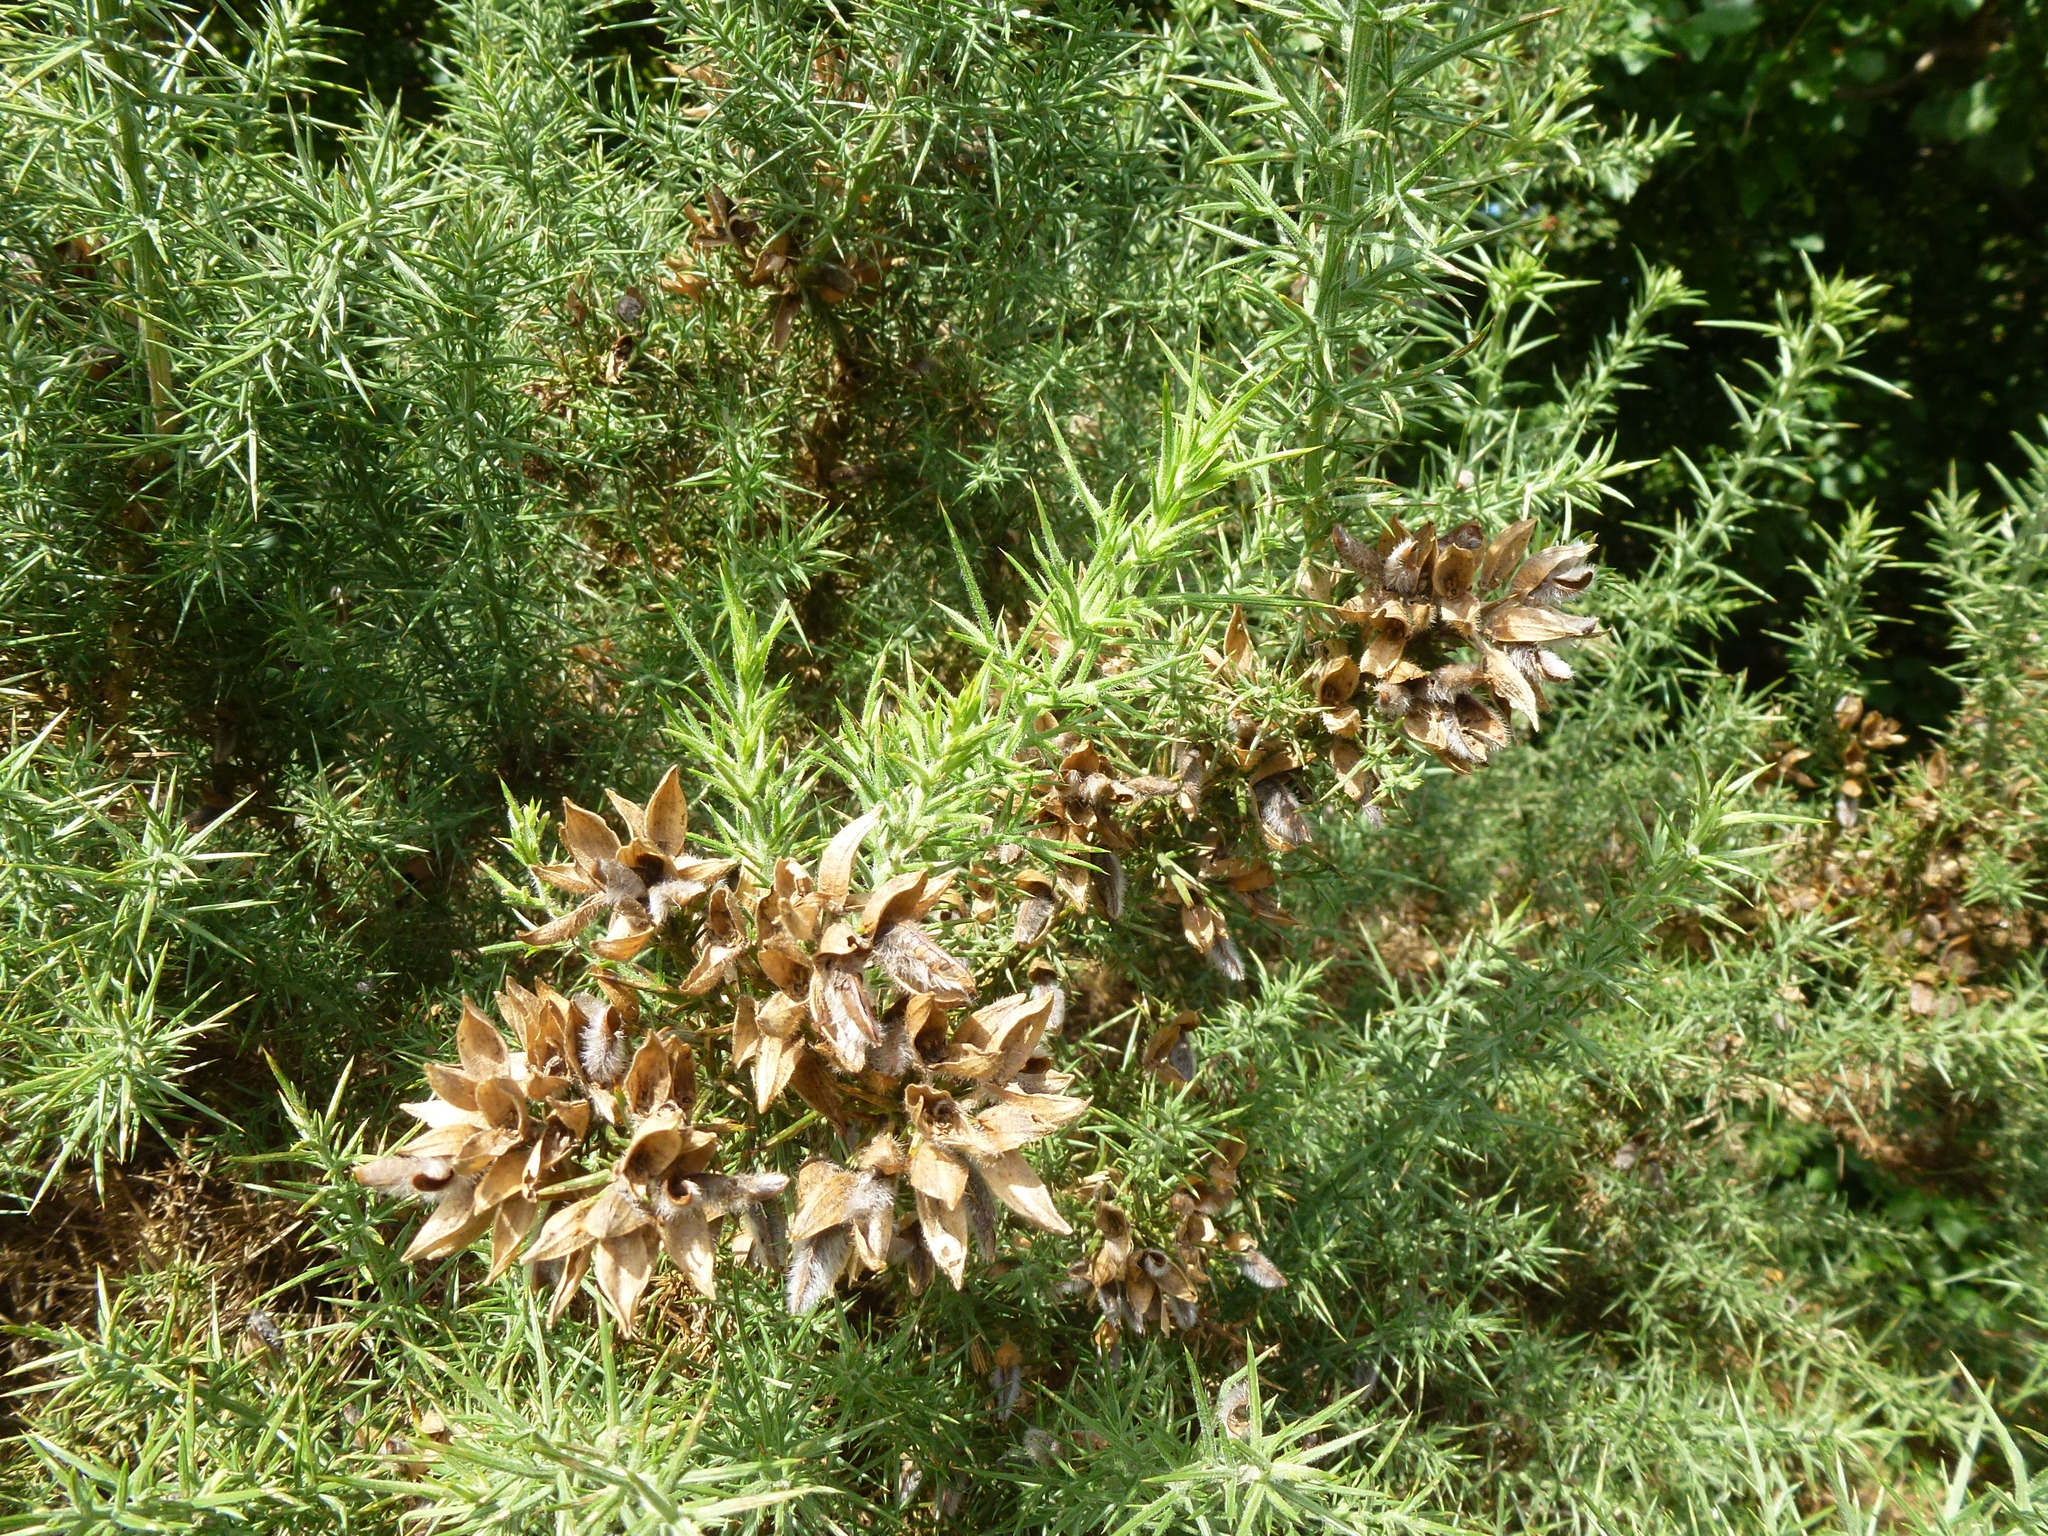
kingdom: Plantae
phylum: Tracheophyta
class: Magnoliopsida
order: Fabales
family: Fabaceae
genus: Ulex
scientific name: Ulex europaeus
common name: Common gorse
